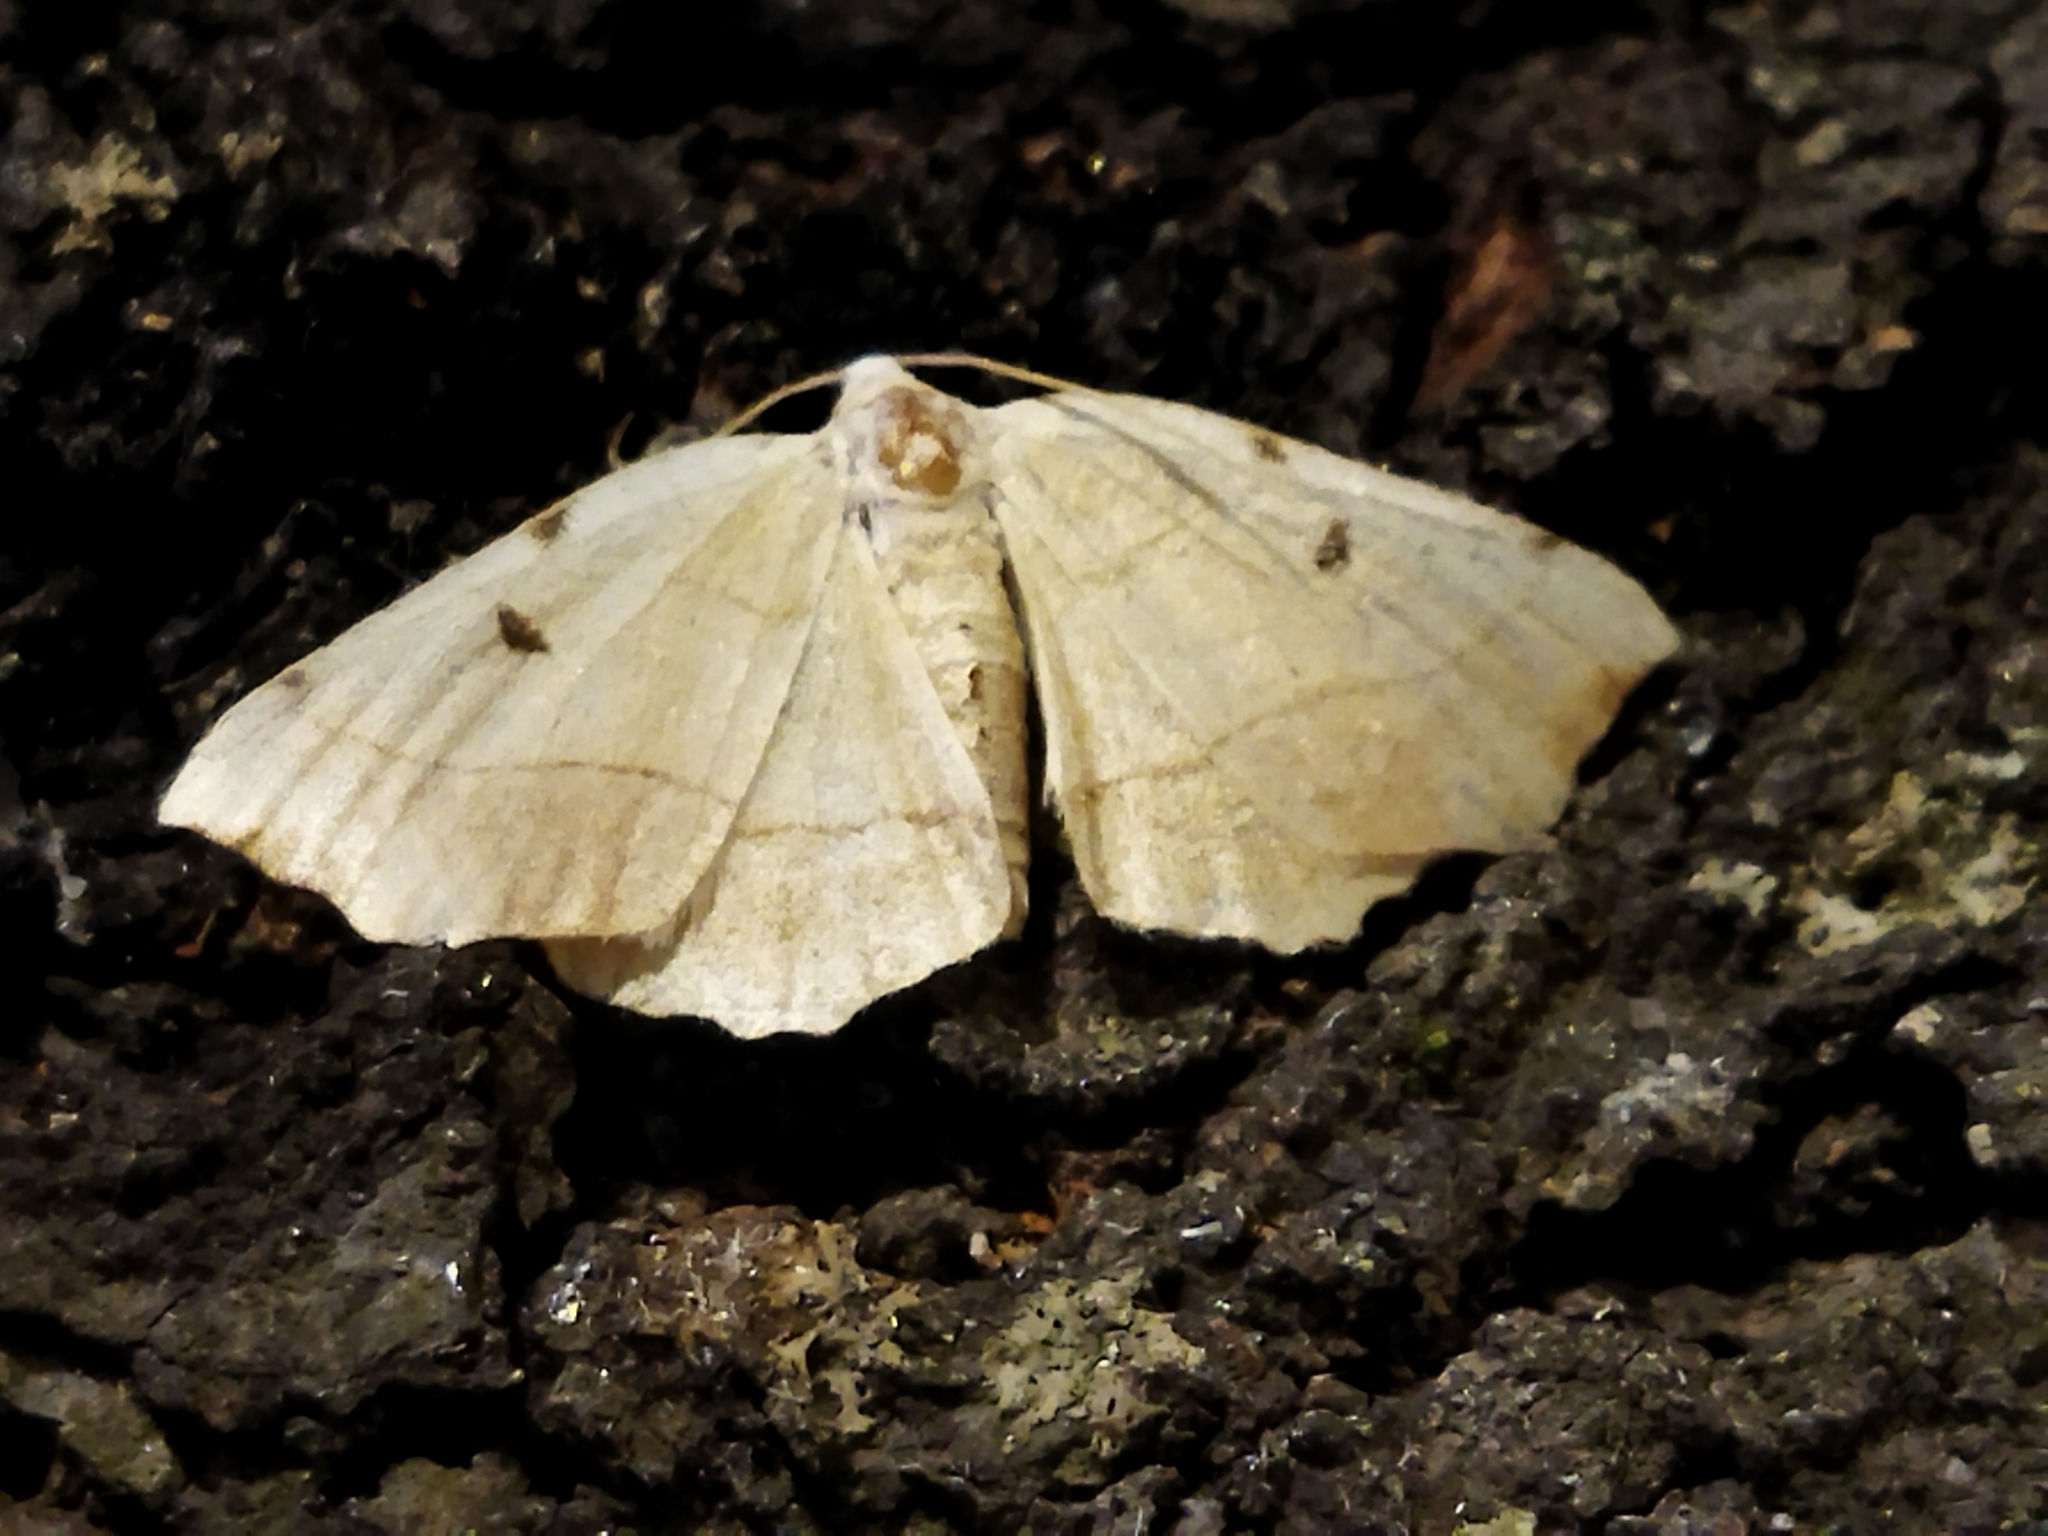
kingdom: Animalia
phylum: Arthropoda
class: Insecta
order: Lepidoptera
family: Geometridae
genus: Eilicrinia
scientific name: Eilicrinia trinotata
